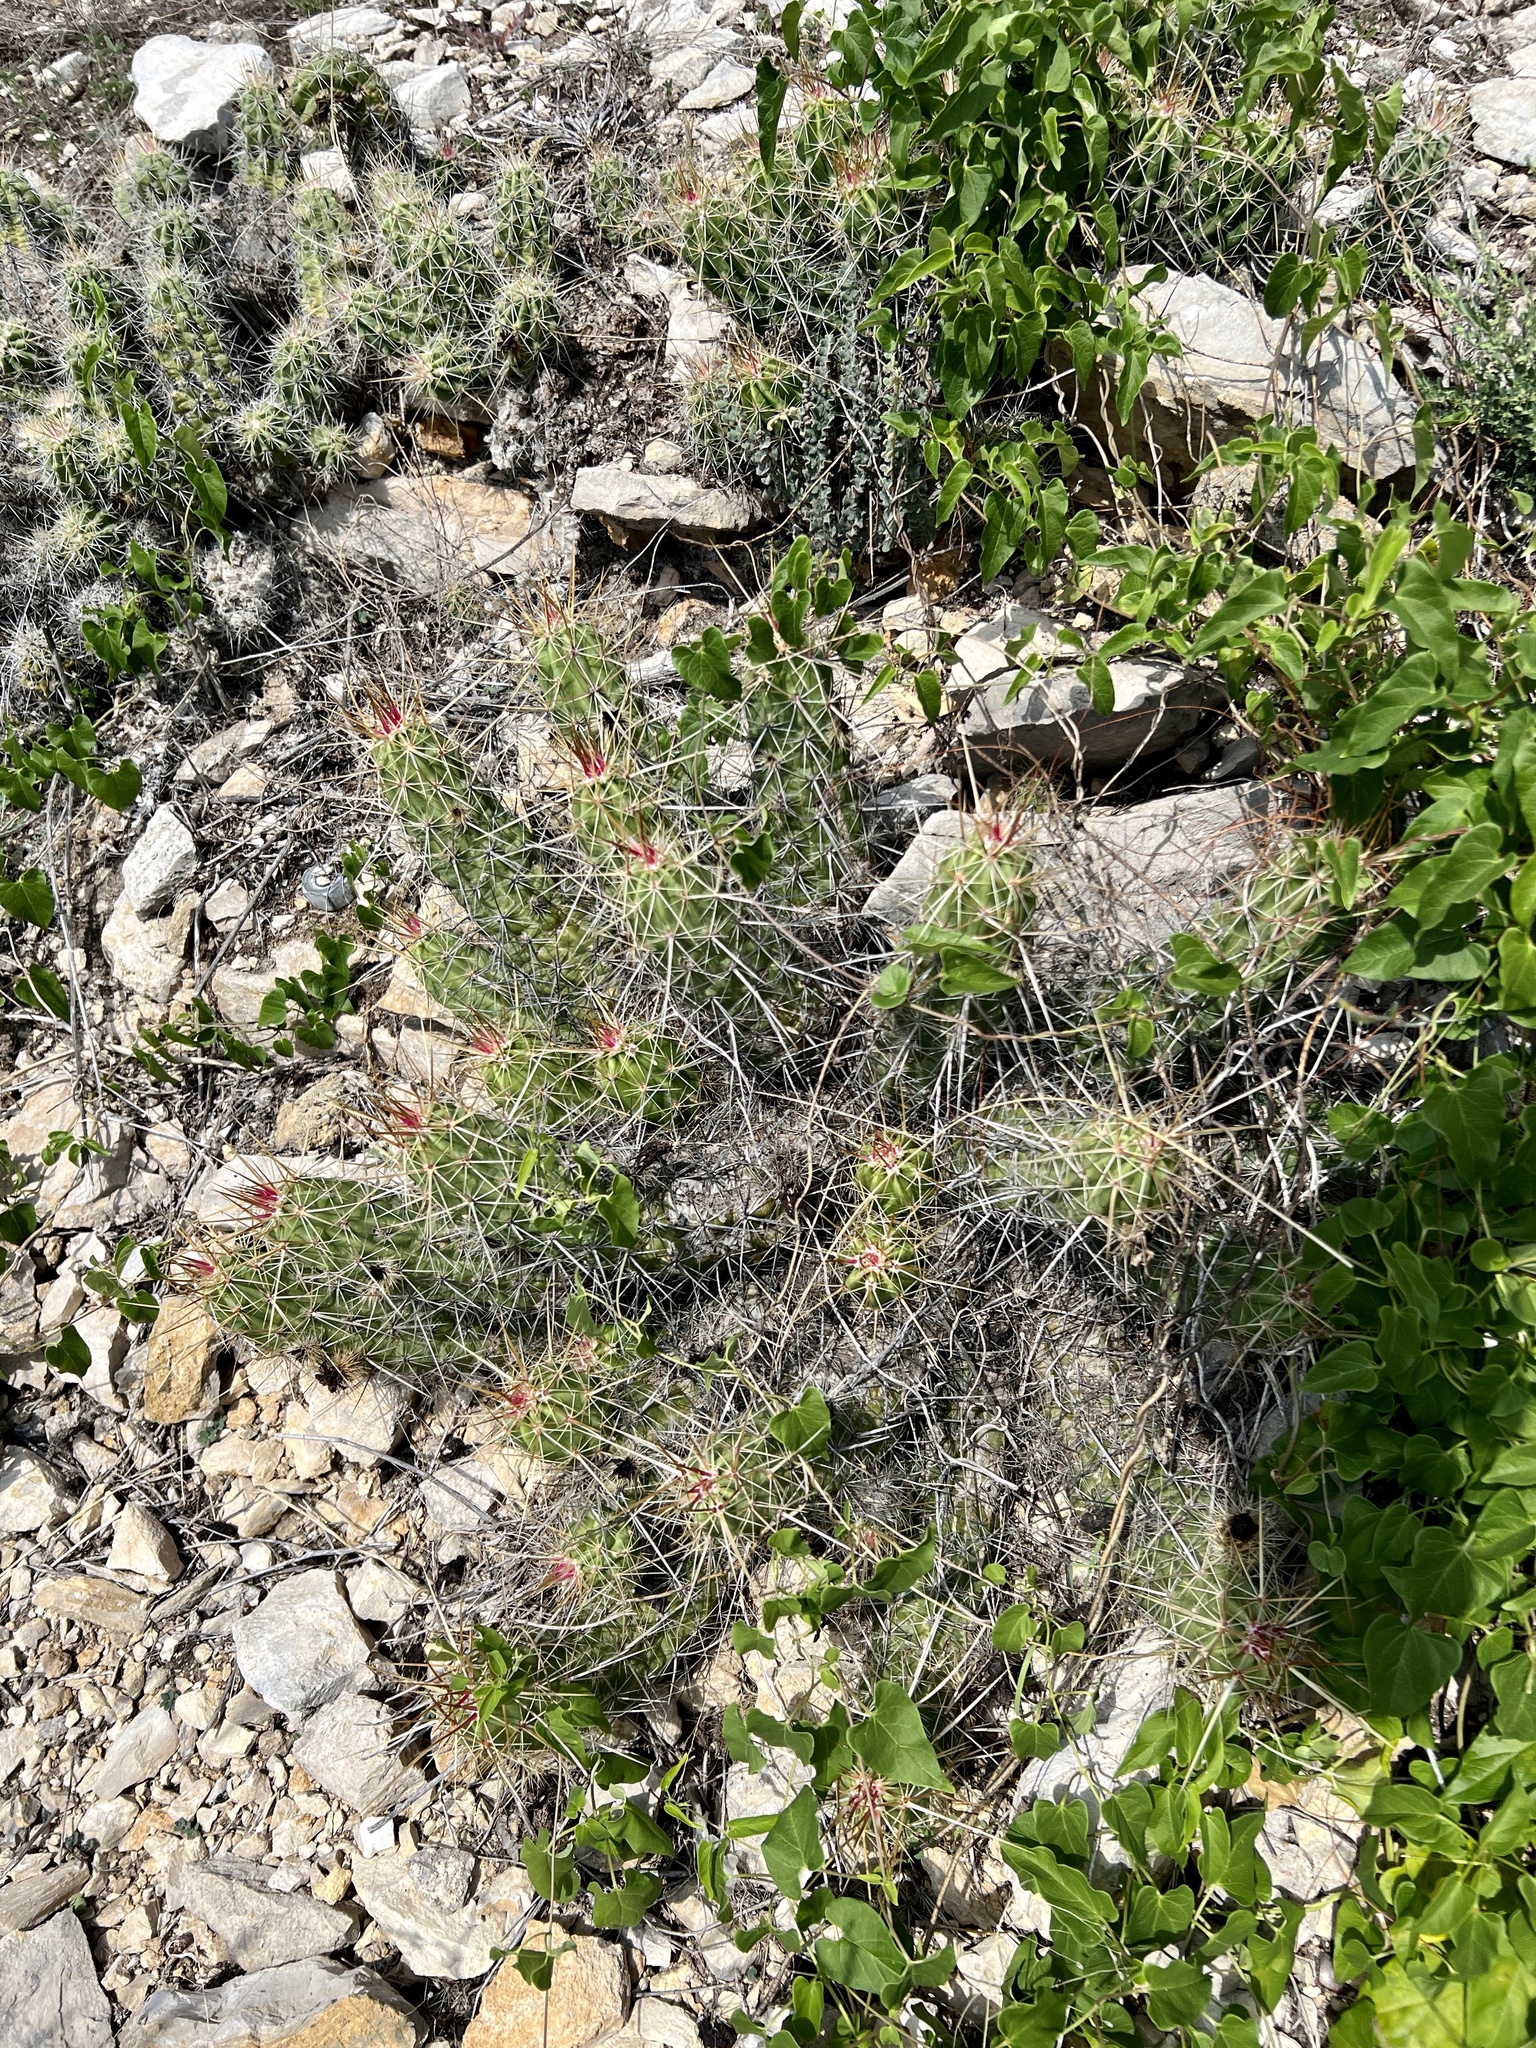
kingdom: Plantae
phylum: Tracheophyta
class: Magnoliopsida
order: Caryophyllales
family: Cactaceae
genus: Echinocereus
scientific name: Echinocereus enneacanthus
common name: Pitaya
